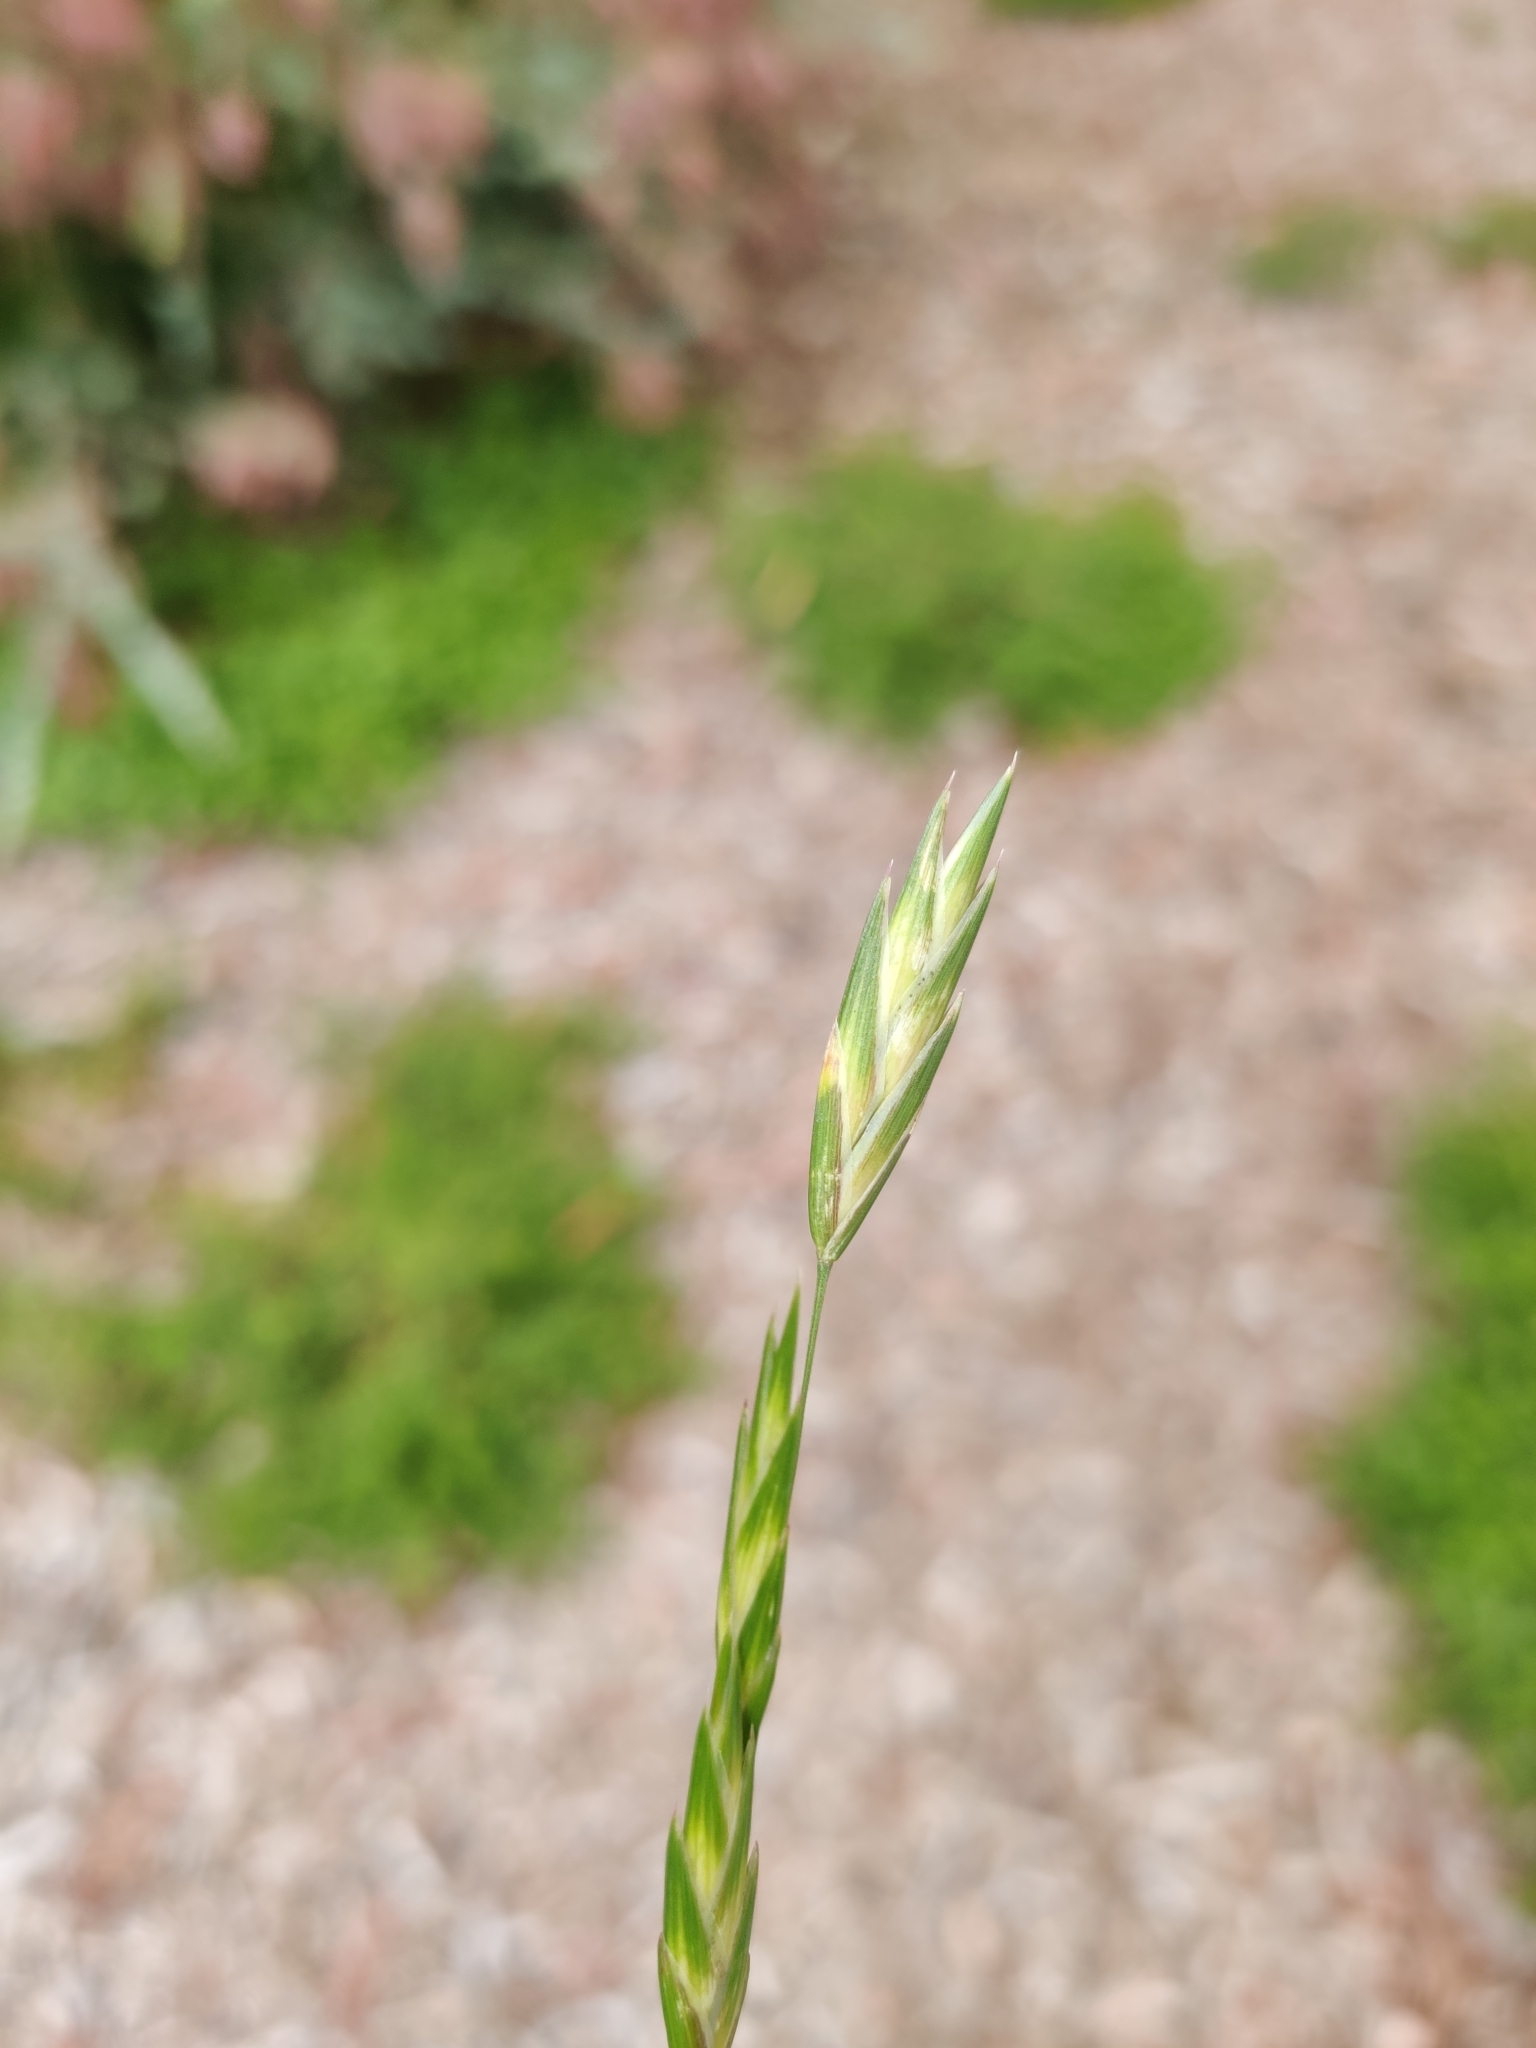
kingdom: Plantae
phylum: Tracheophyta
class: Liliopsida
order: Poales
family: Poaceae
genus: Bromus
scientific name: Bromus catharticus
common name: Rescuegrass
